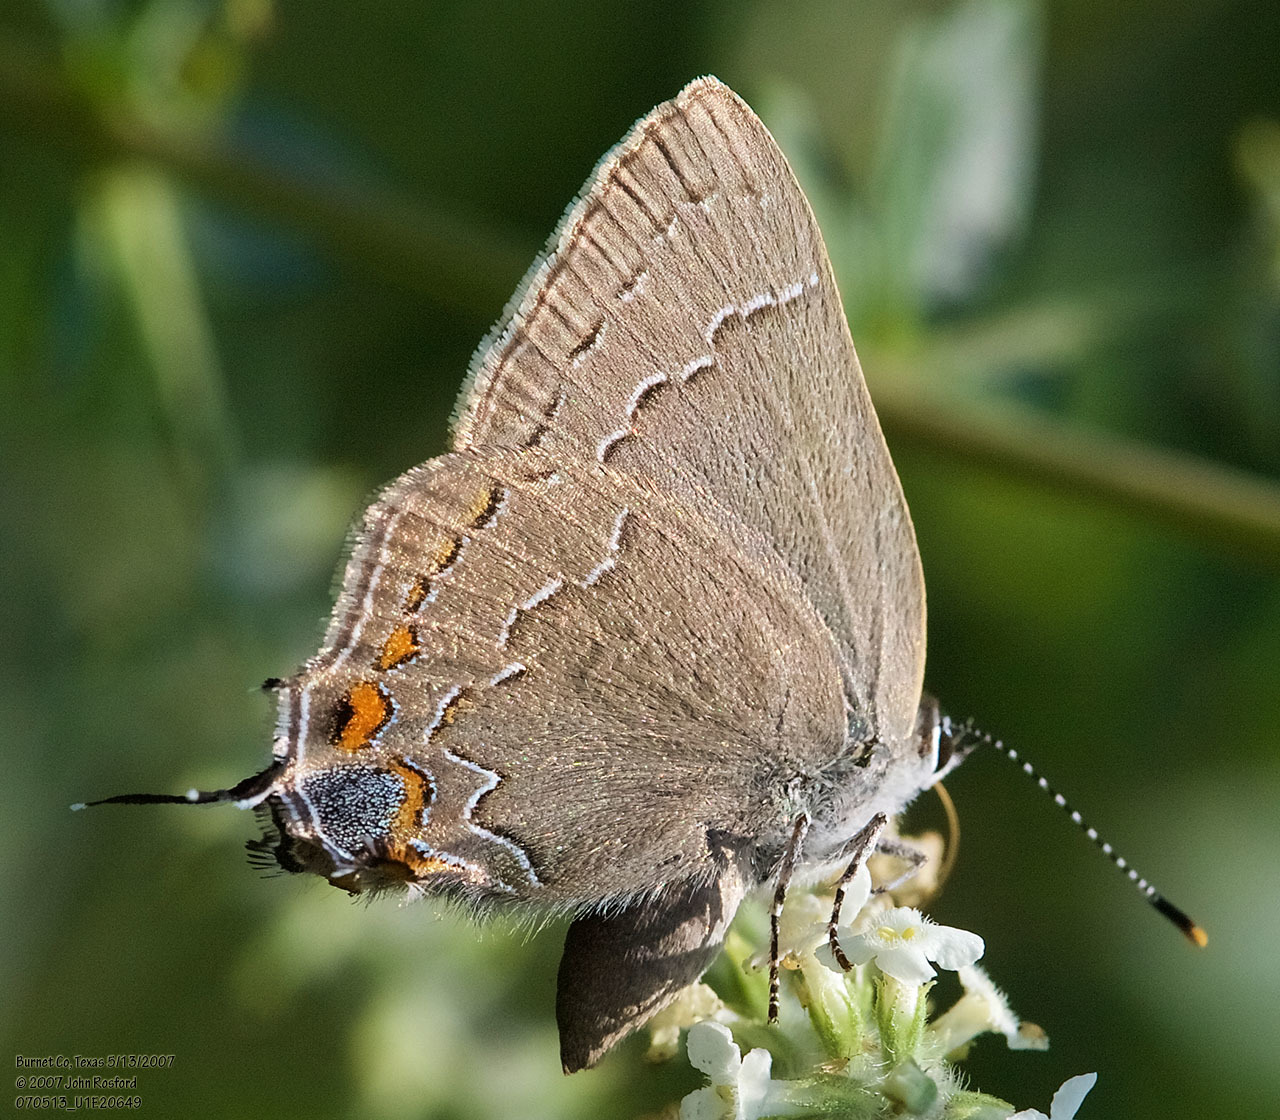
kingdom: Animalia
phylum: Arthropoda
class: Insecta
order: Lepidoptera
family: Lycaenidae
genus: Fixsenia
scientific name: Fixsenia favonius
